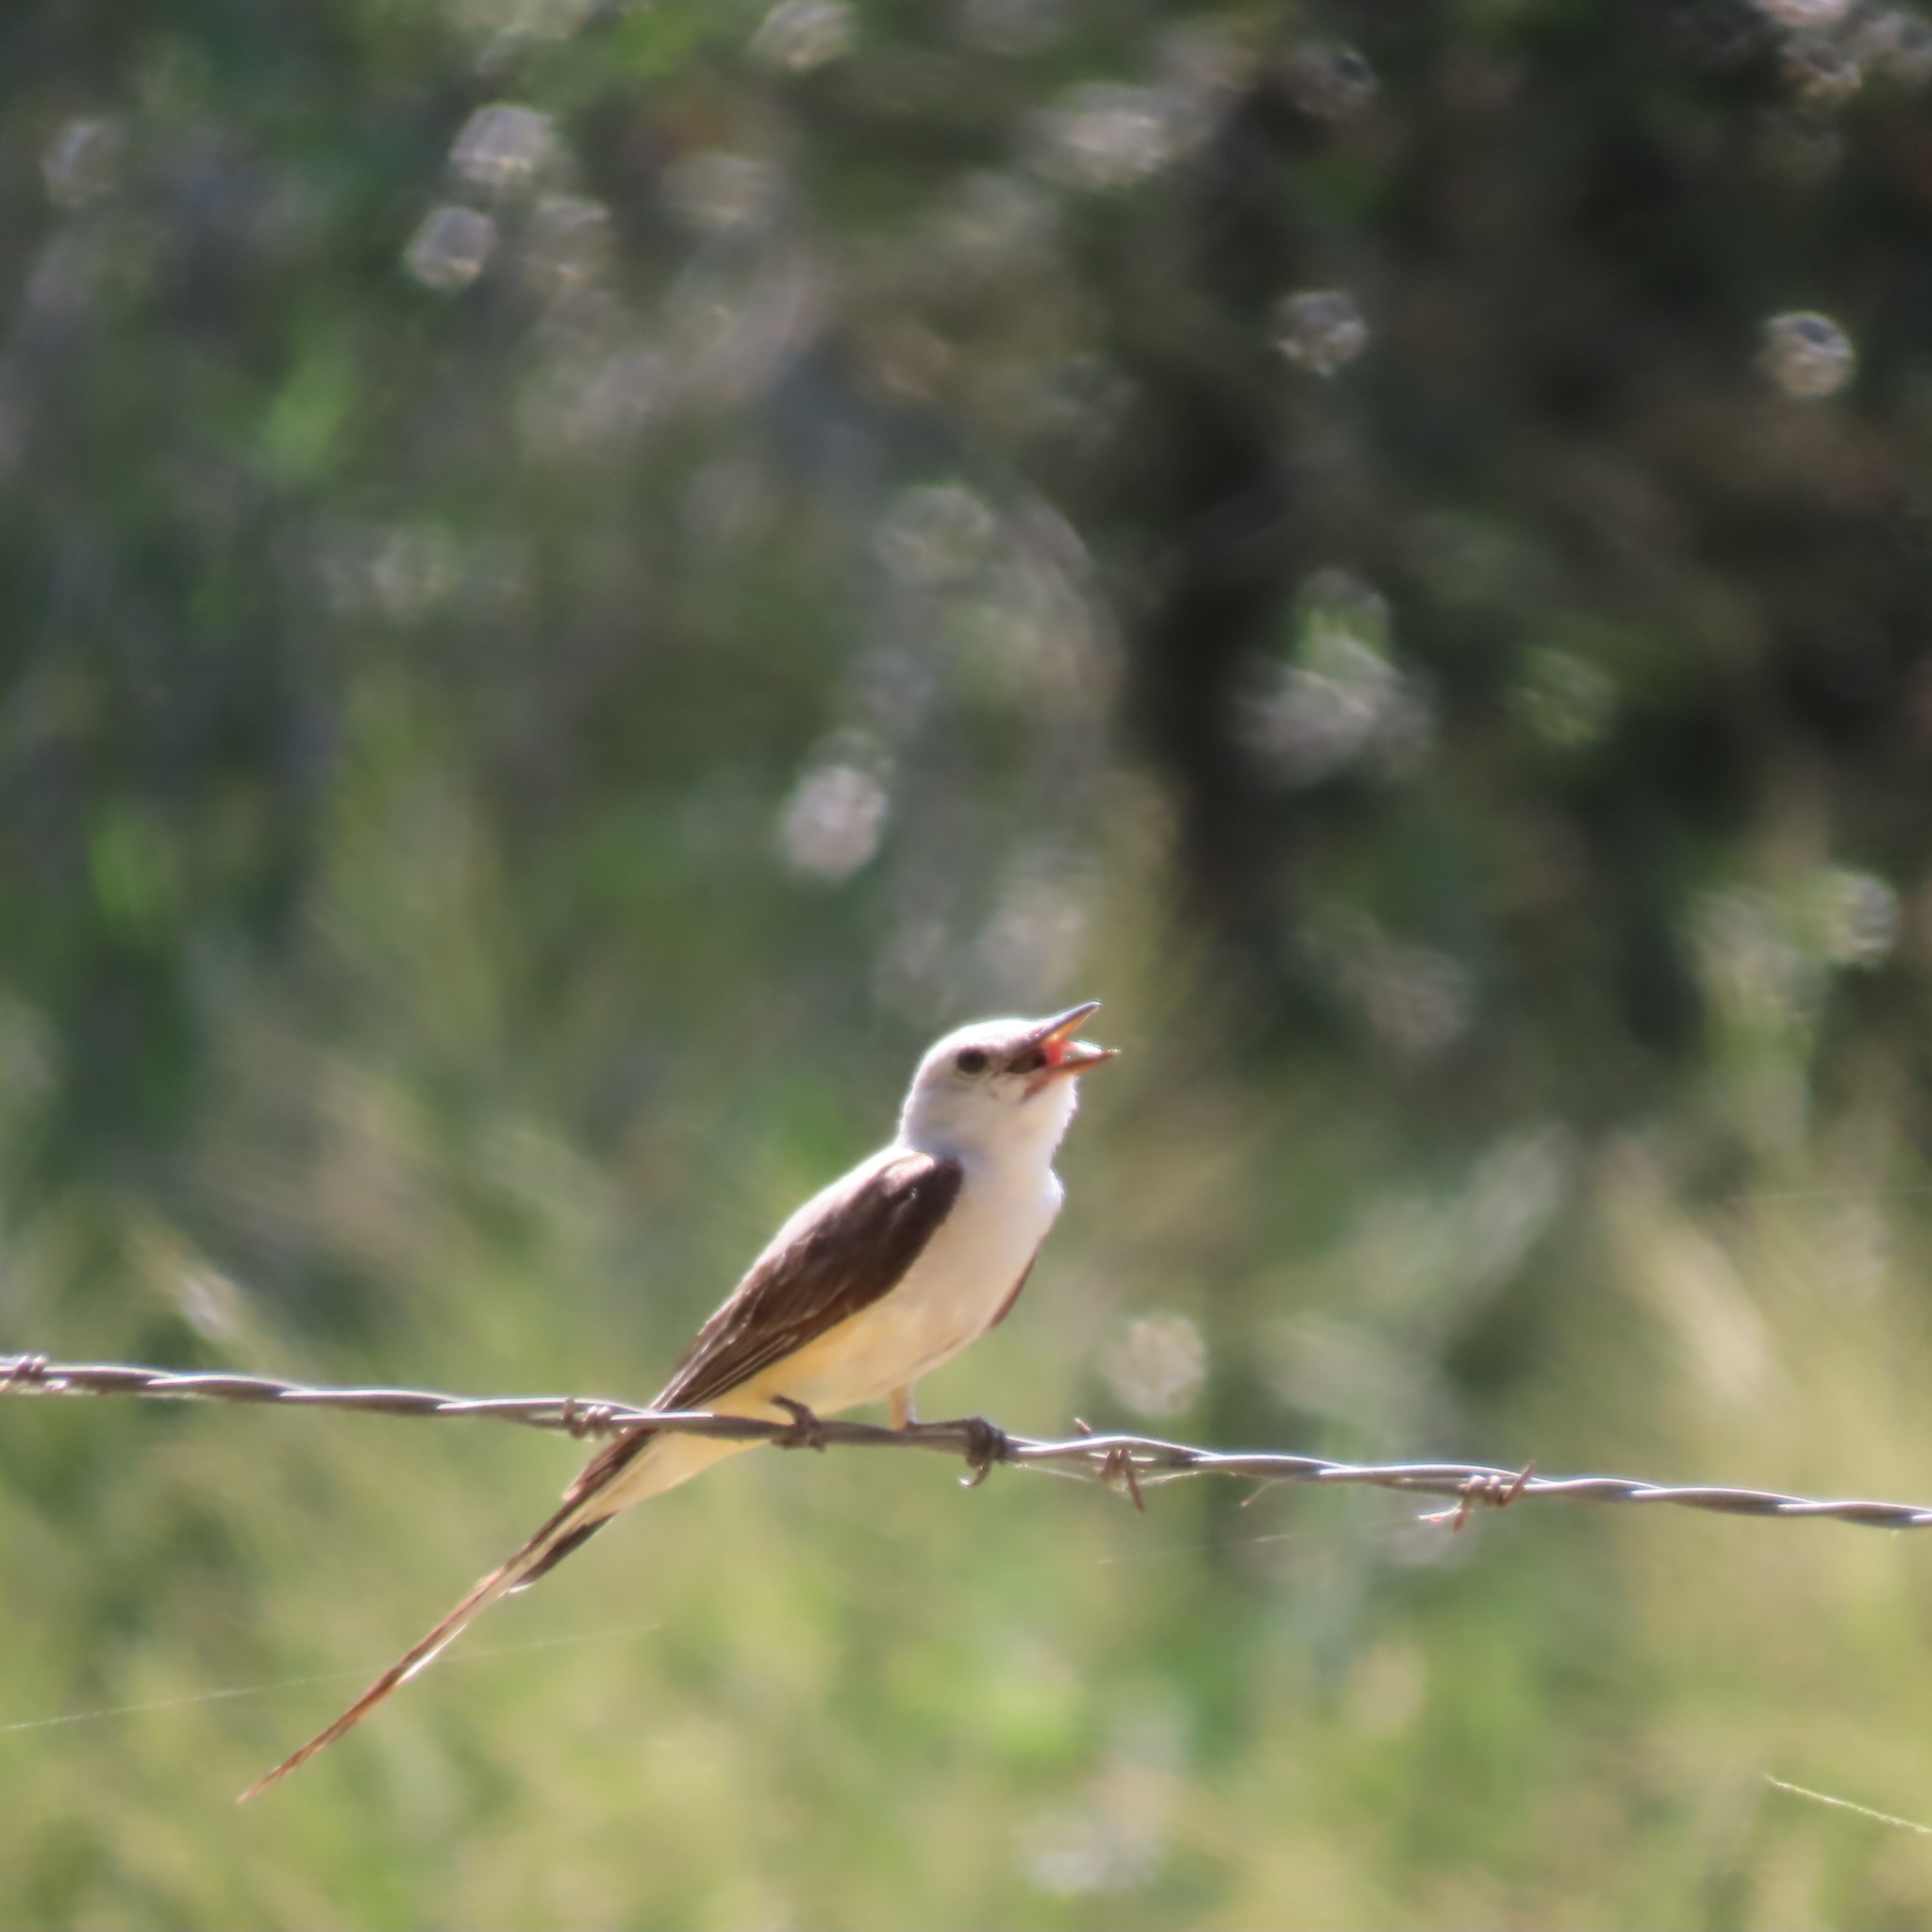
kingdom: Animalia
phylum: Chordata
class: Aves
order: Passeriformes
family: Tyrannidae
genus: Tyrannus
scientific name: Tyrannus forficatus
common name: Scissor-tailed flycatcher
